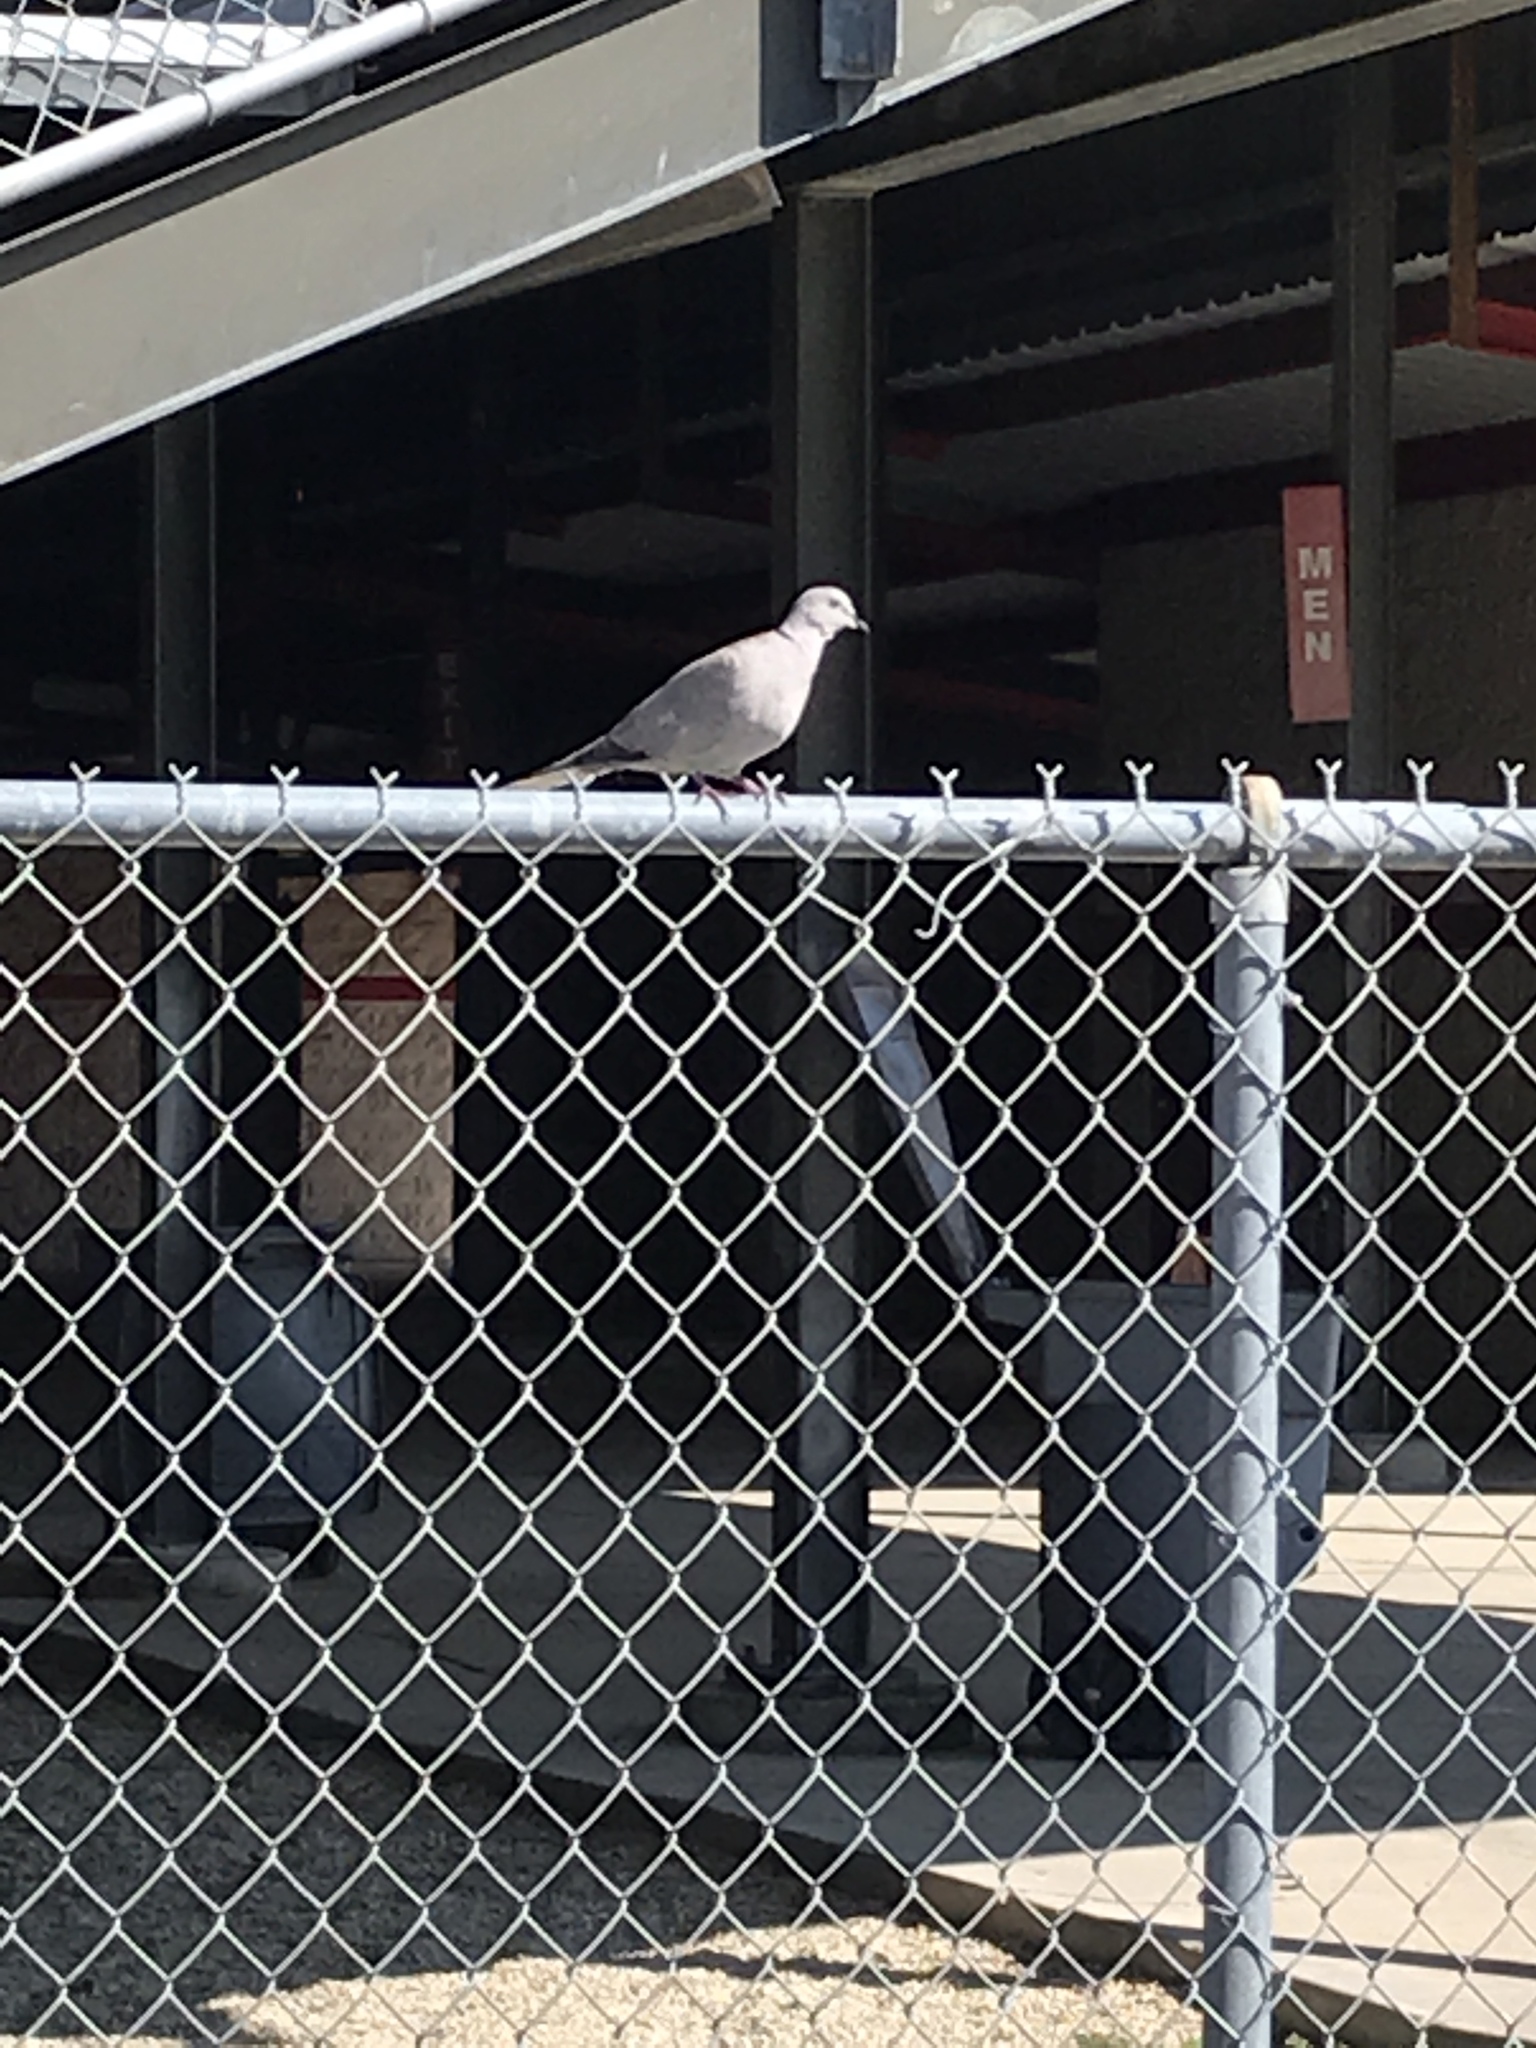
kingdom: Animalia
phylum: Chordata
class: Aves
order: Columbiformes
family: Columbidae
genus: Streptopelia
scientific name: Streptopelia decaocto
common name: Eurasian collared dove
